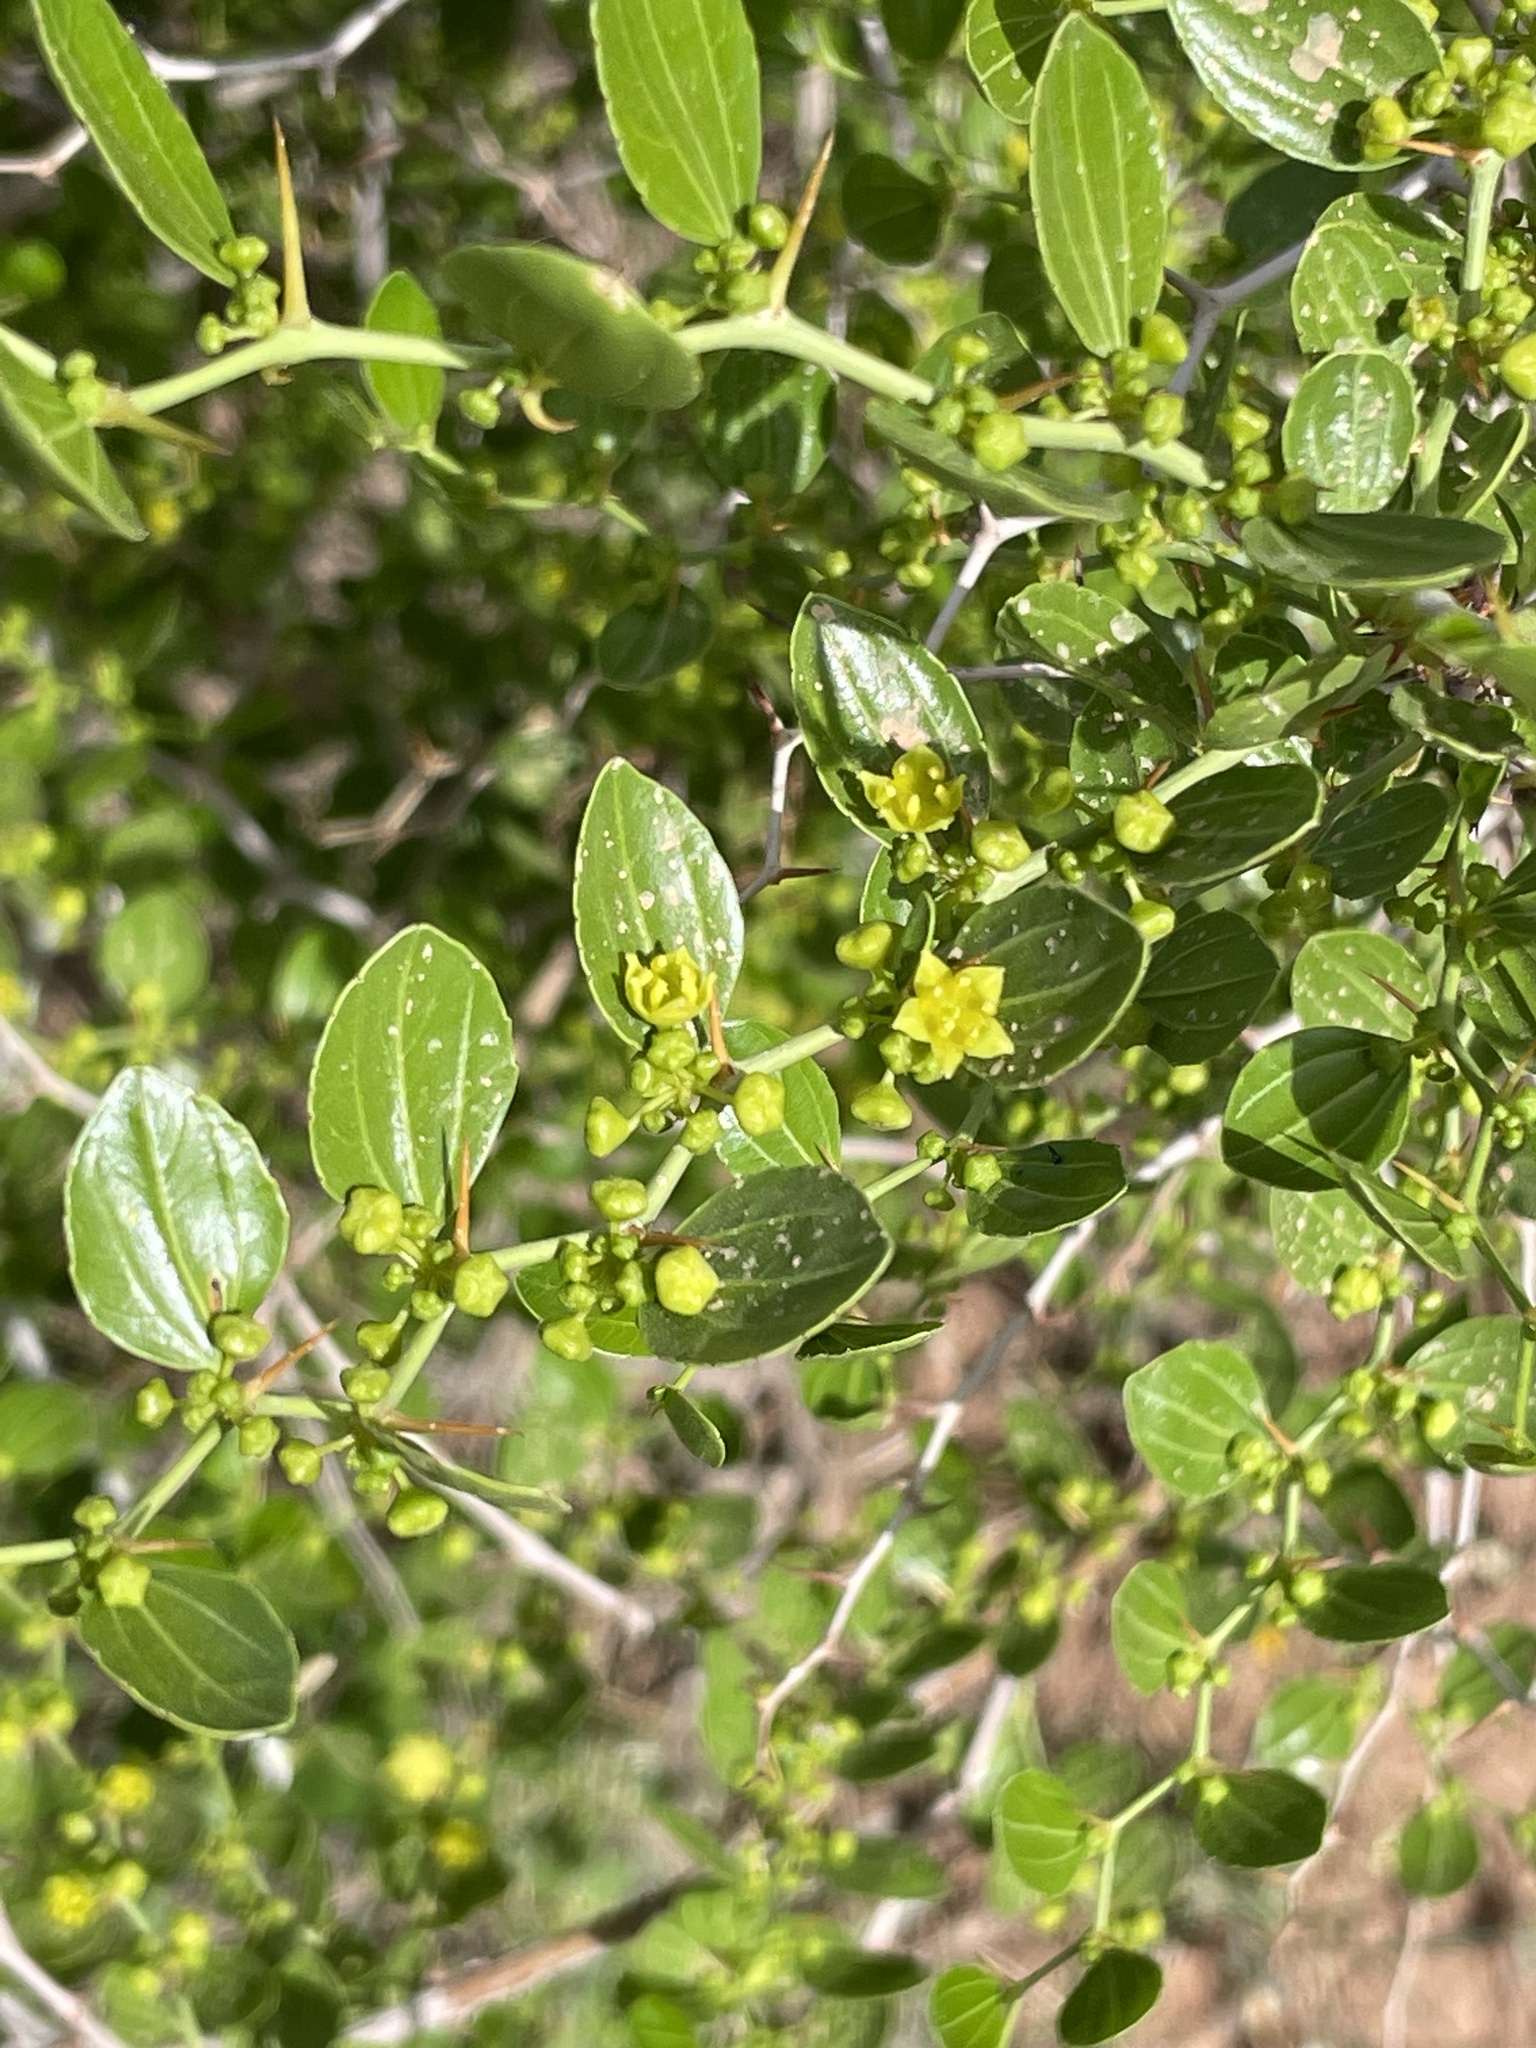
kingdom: Plantae
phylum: Tracheophyta
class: Magnoliopsida
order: Rosales
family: Rhamnaceae
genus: Ziziphus
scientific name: Ziziphus lotus
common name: Lotus
